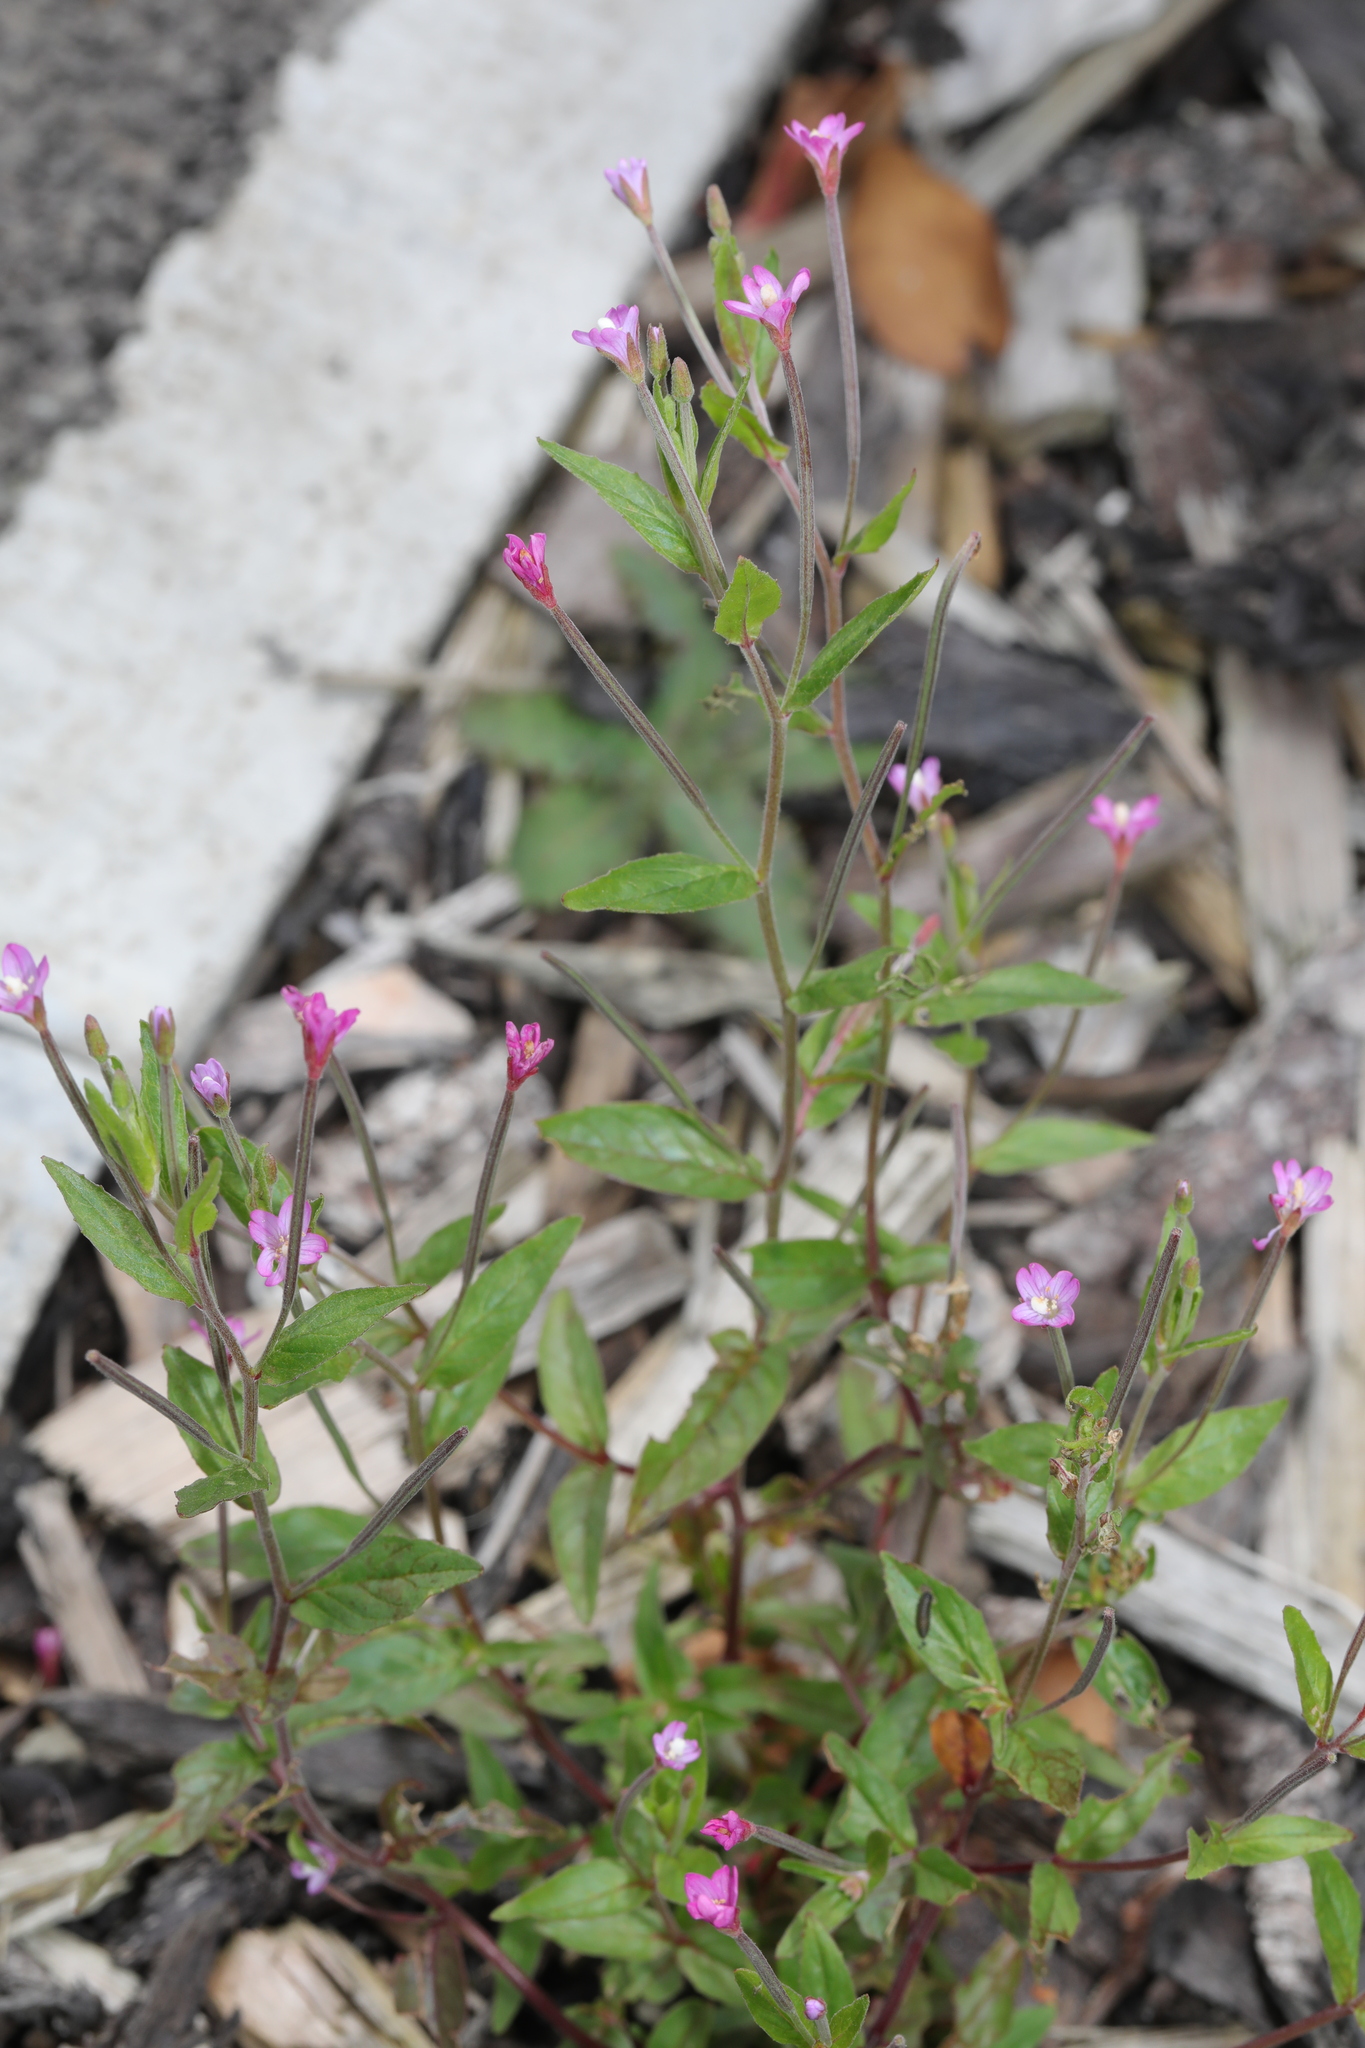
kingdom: Plantae
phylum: Tracheophyta
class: Magnoliopsida
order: Myrtales
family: Onagraceae
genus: Epilobium
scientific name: Epilobium ciliatum
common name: American willowherb
